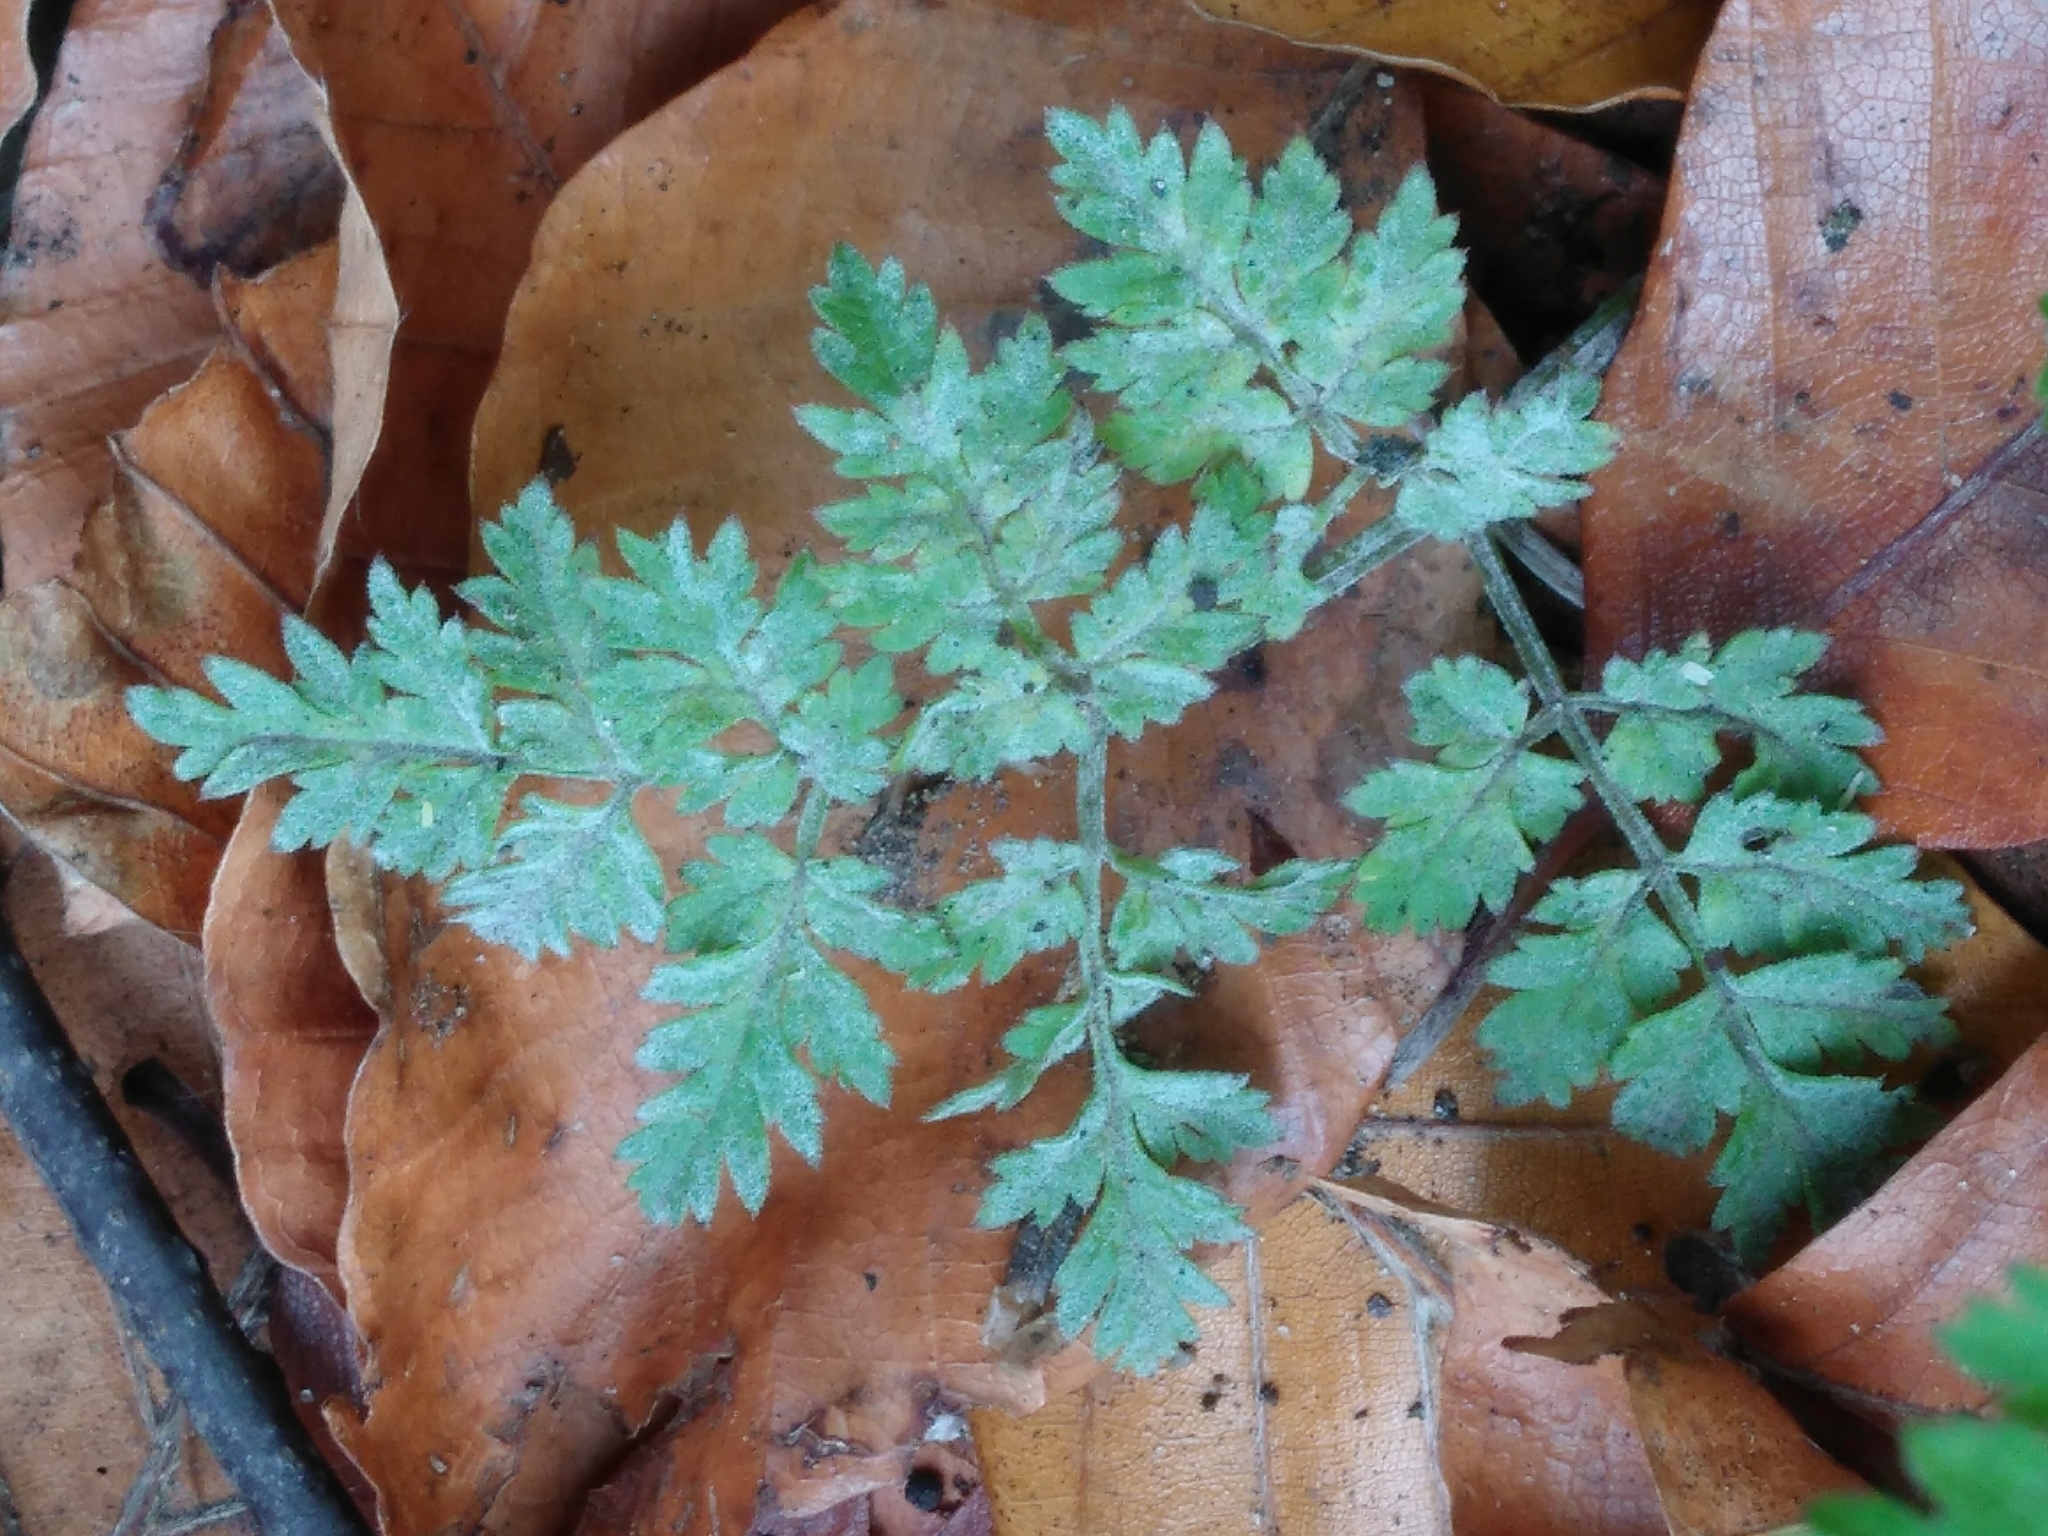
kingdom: Fungi
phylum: Ascomycota
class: Leotiomycetes
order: Helotiales
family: Erysiphaceae
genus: Erysiphe
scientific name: Erysiphe heraclei
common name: Umbellifer mildew
